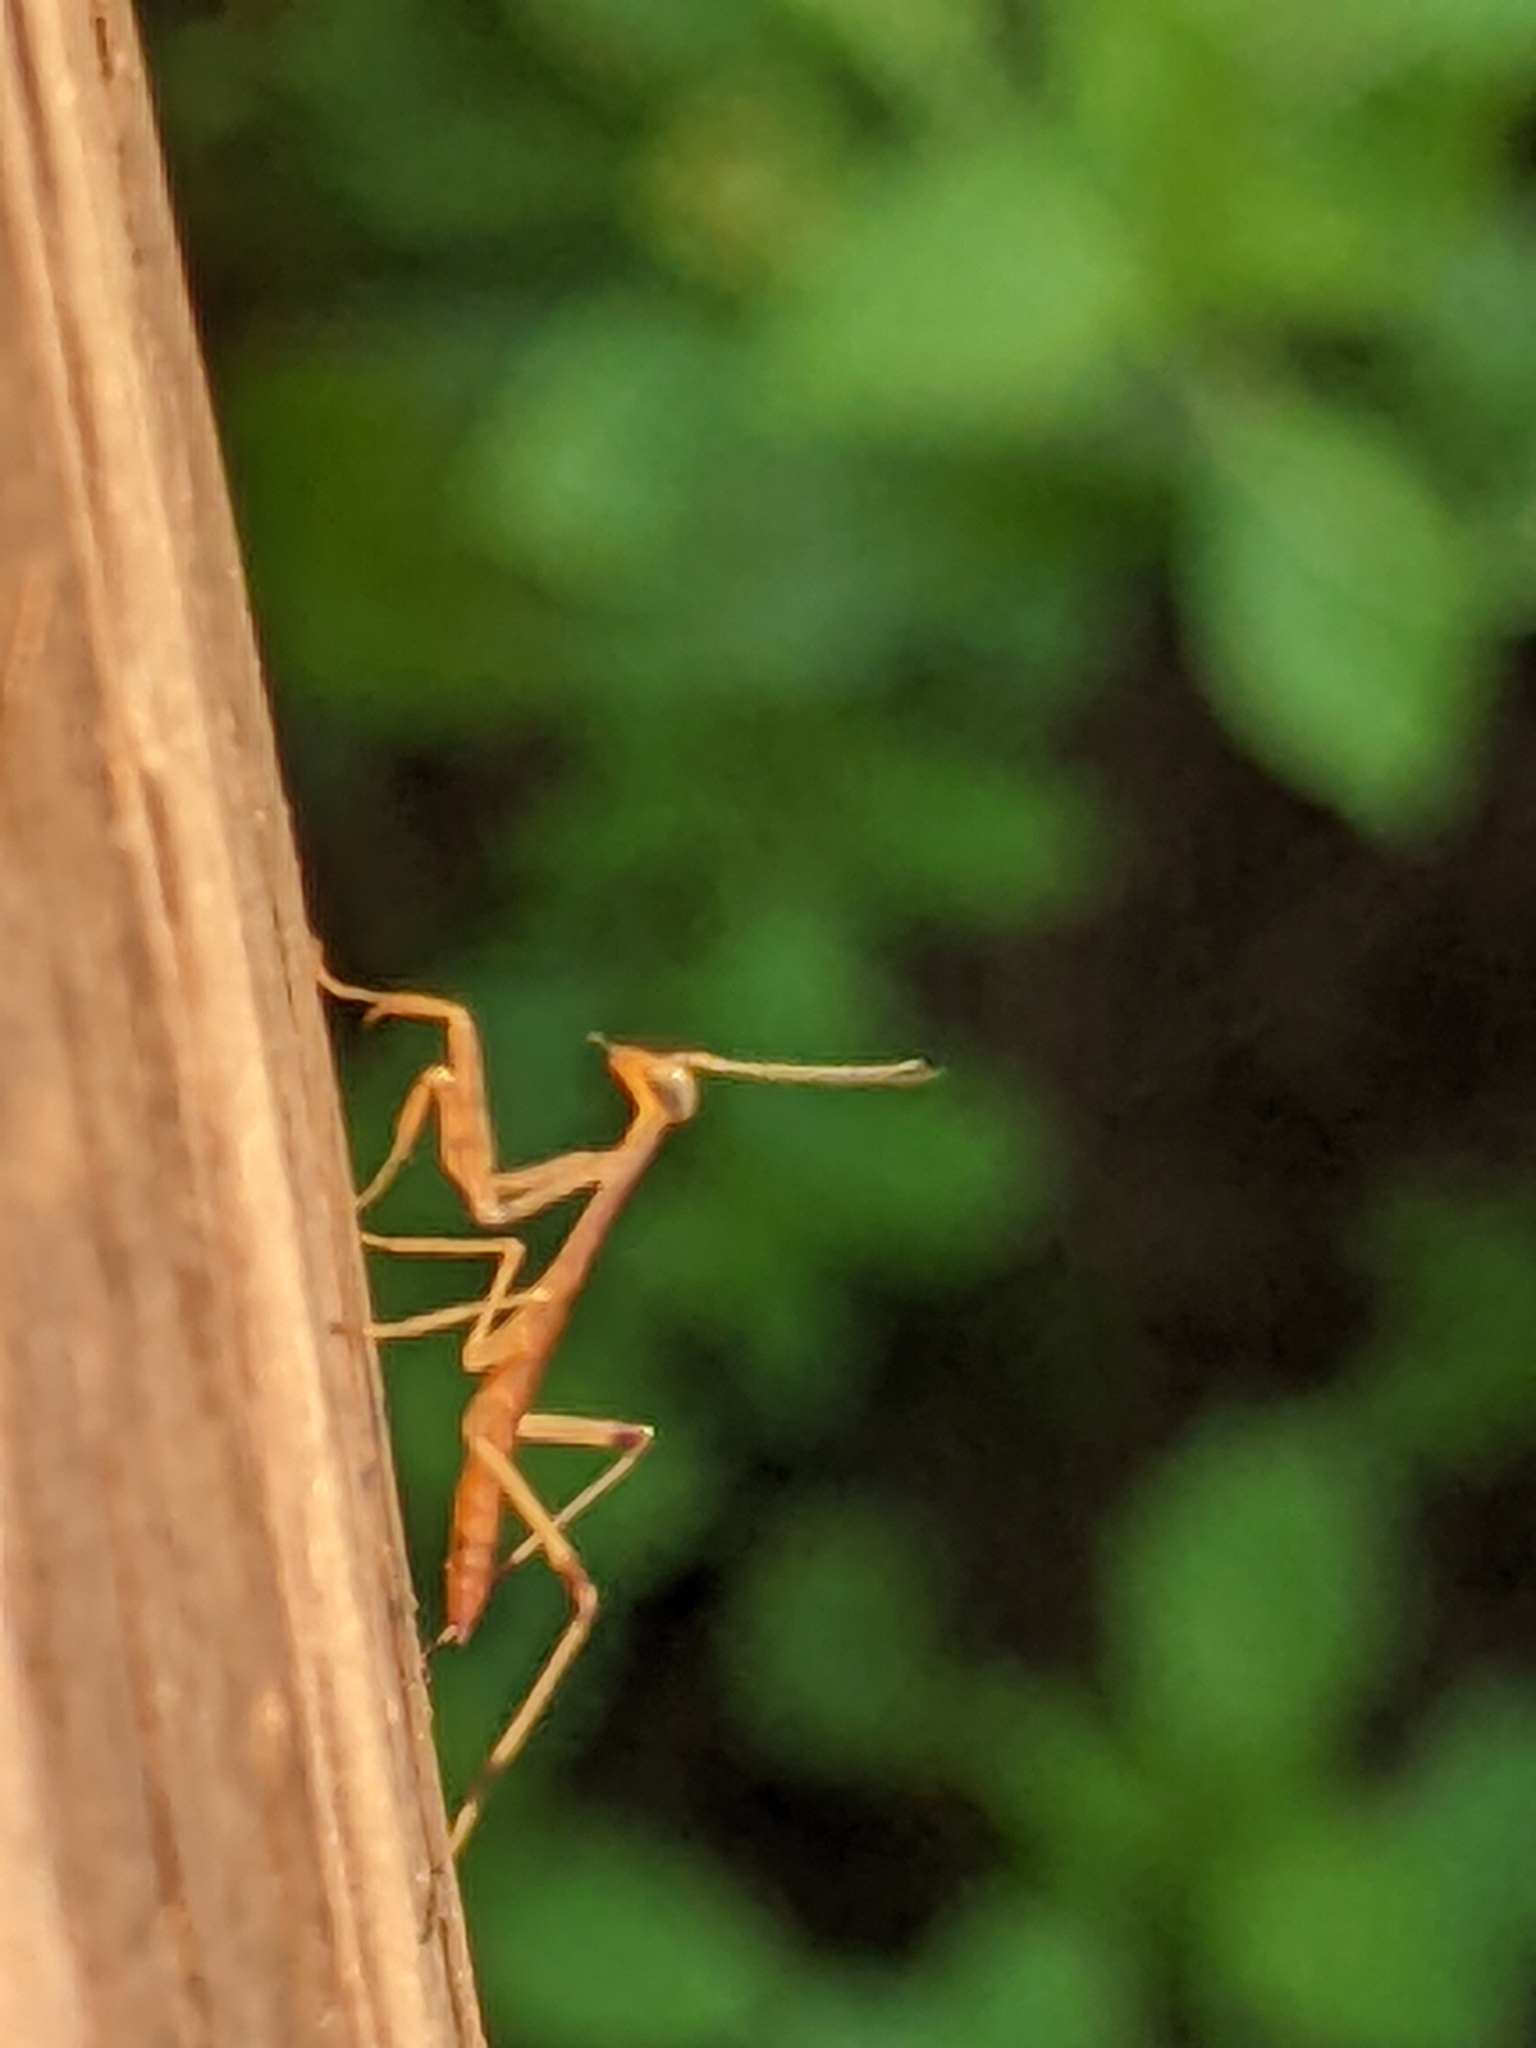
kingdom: Animalia
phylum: Arthropoda
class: Insecta
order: Mantodea
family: Mantidae
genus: Stagmomantis
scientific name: Stagmomantis carolina
